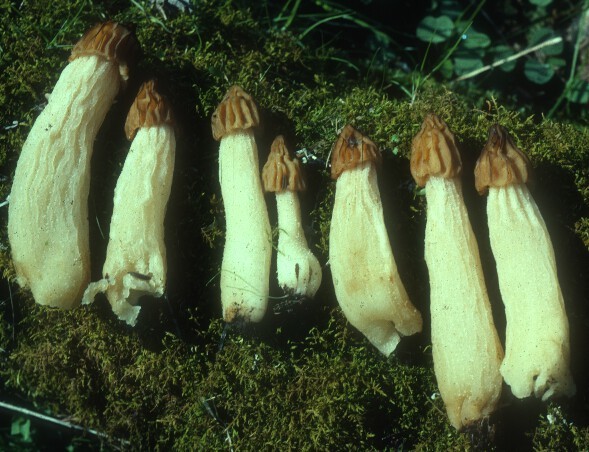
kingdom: Fungi
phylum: Ascomycota
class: Pezizomycetes
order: Pezizales
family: Morchellaceae
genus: Morchella
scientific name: Morchella punctipes
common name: Half-free morel
